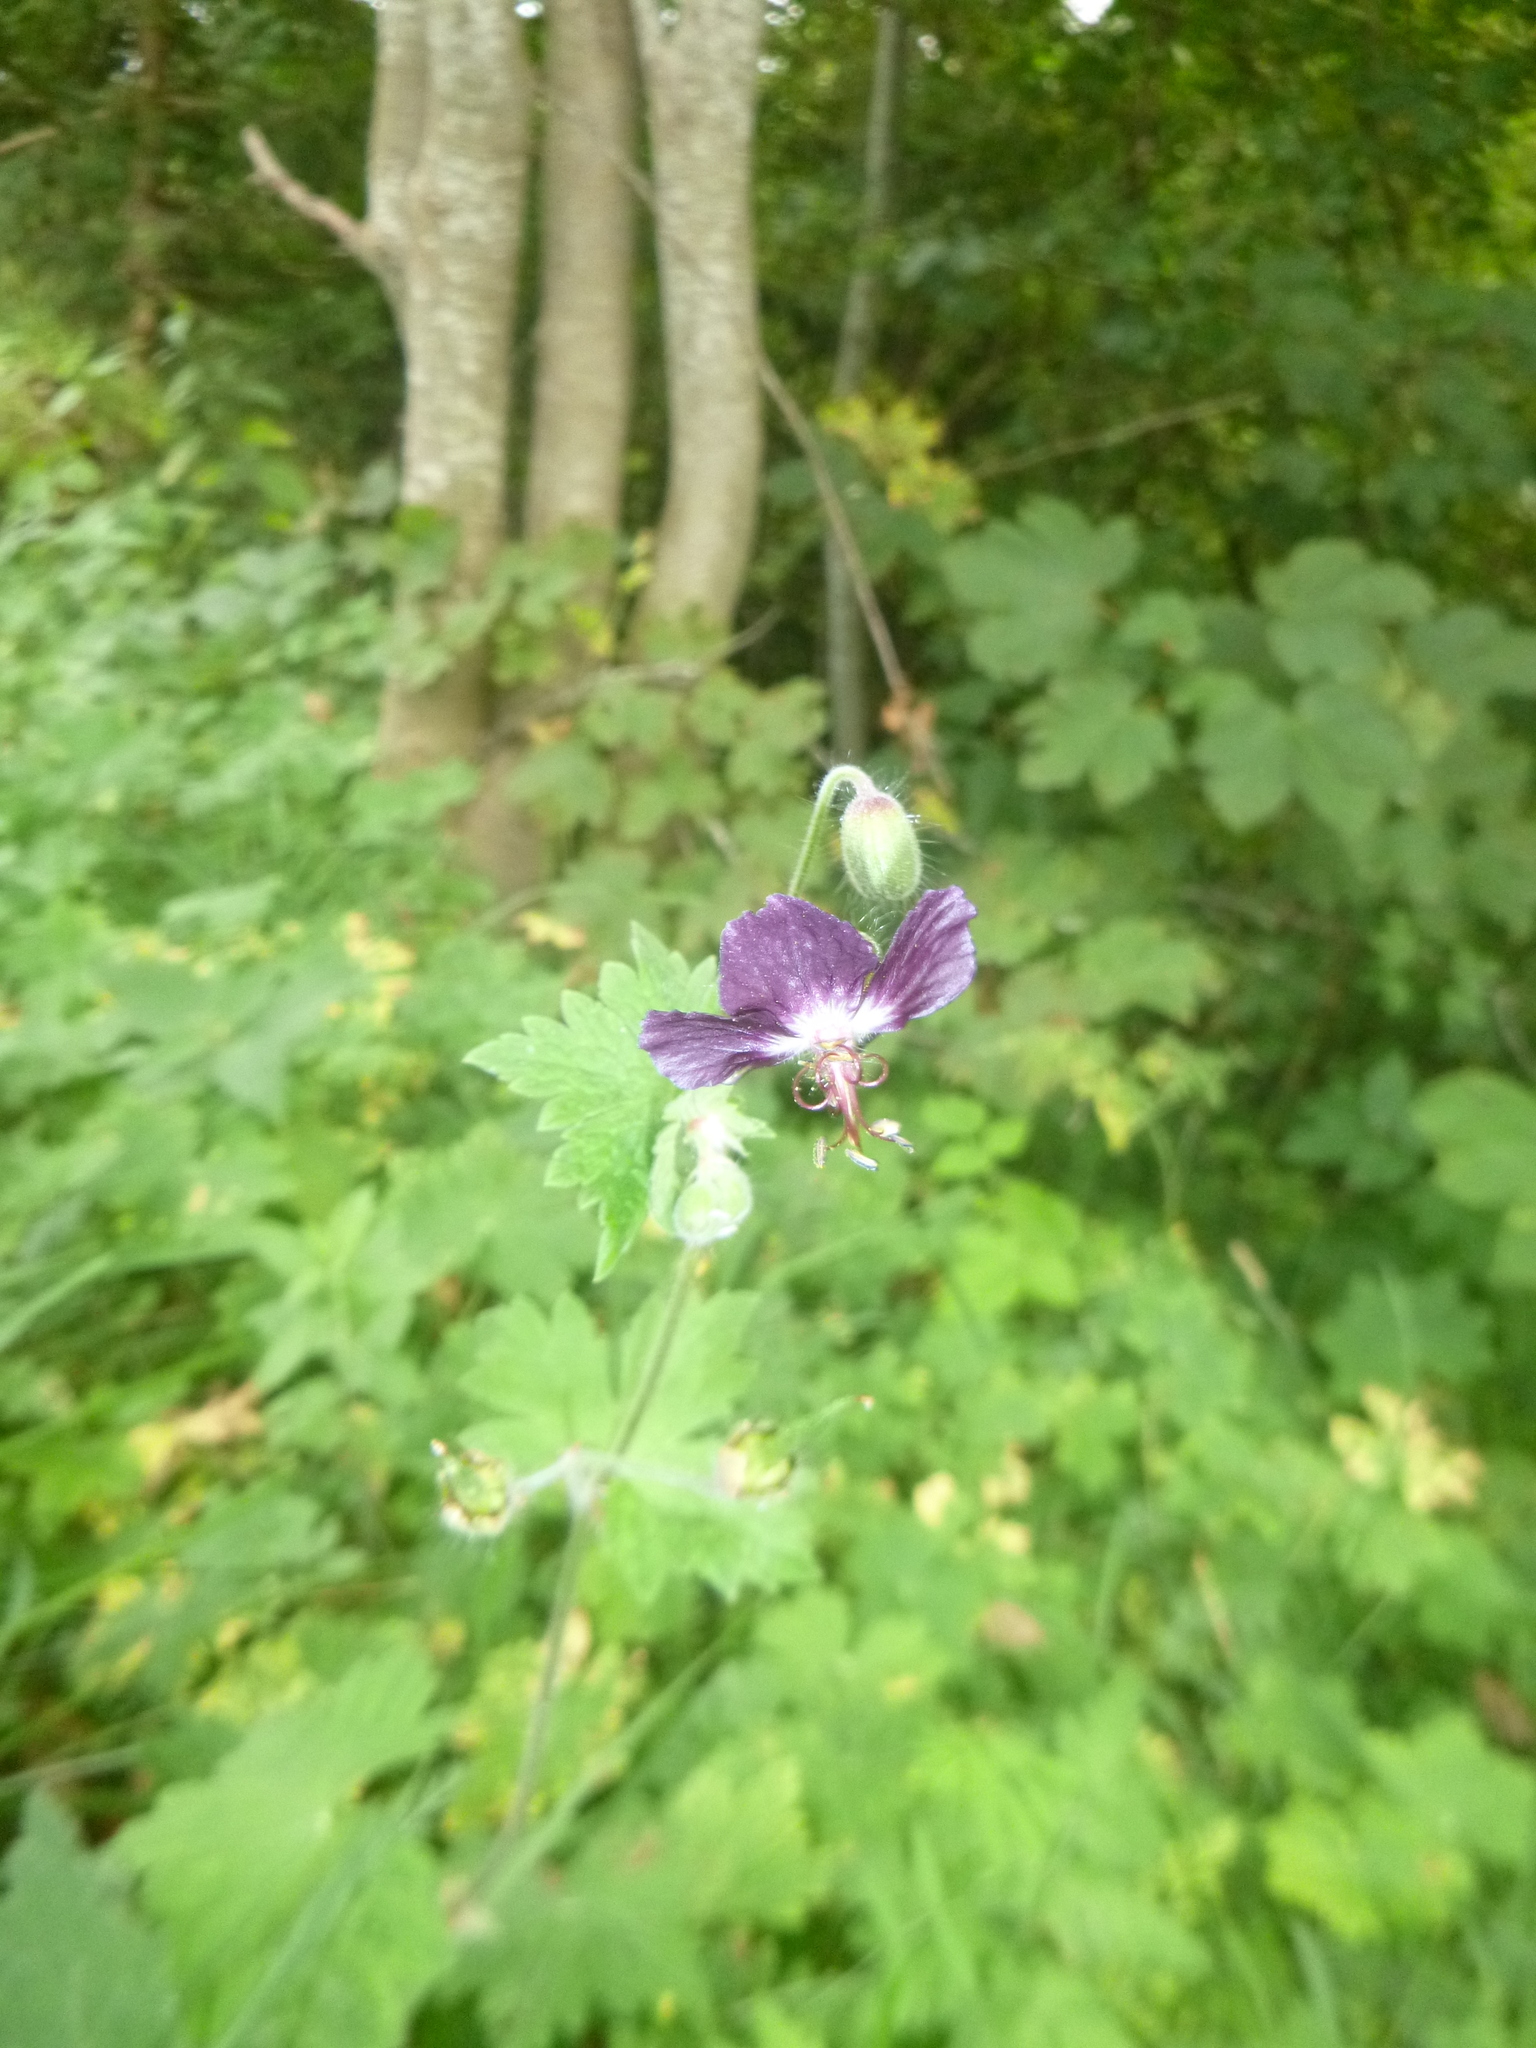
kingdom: Plantae
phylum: Tracheophyta
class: Magnoliopsida
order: Geraniales
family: Geraniaceae
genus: Geranium
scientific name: Geranium phaeum
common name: Dusky crane's-bill
